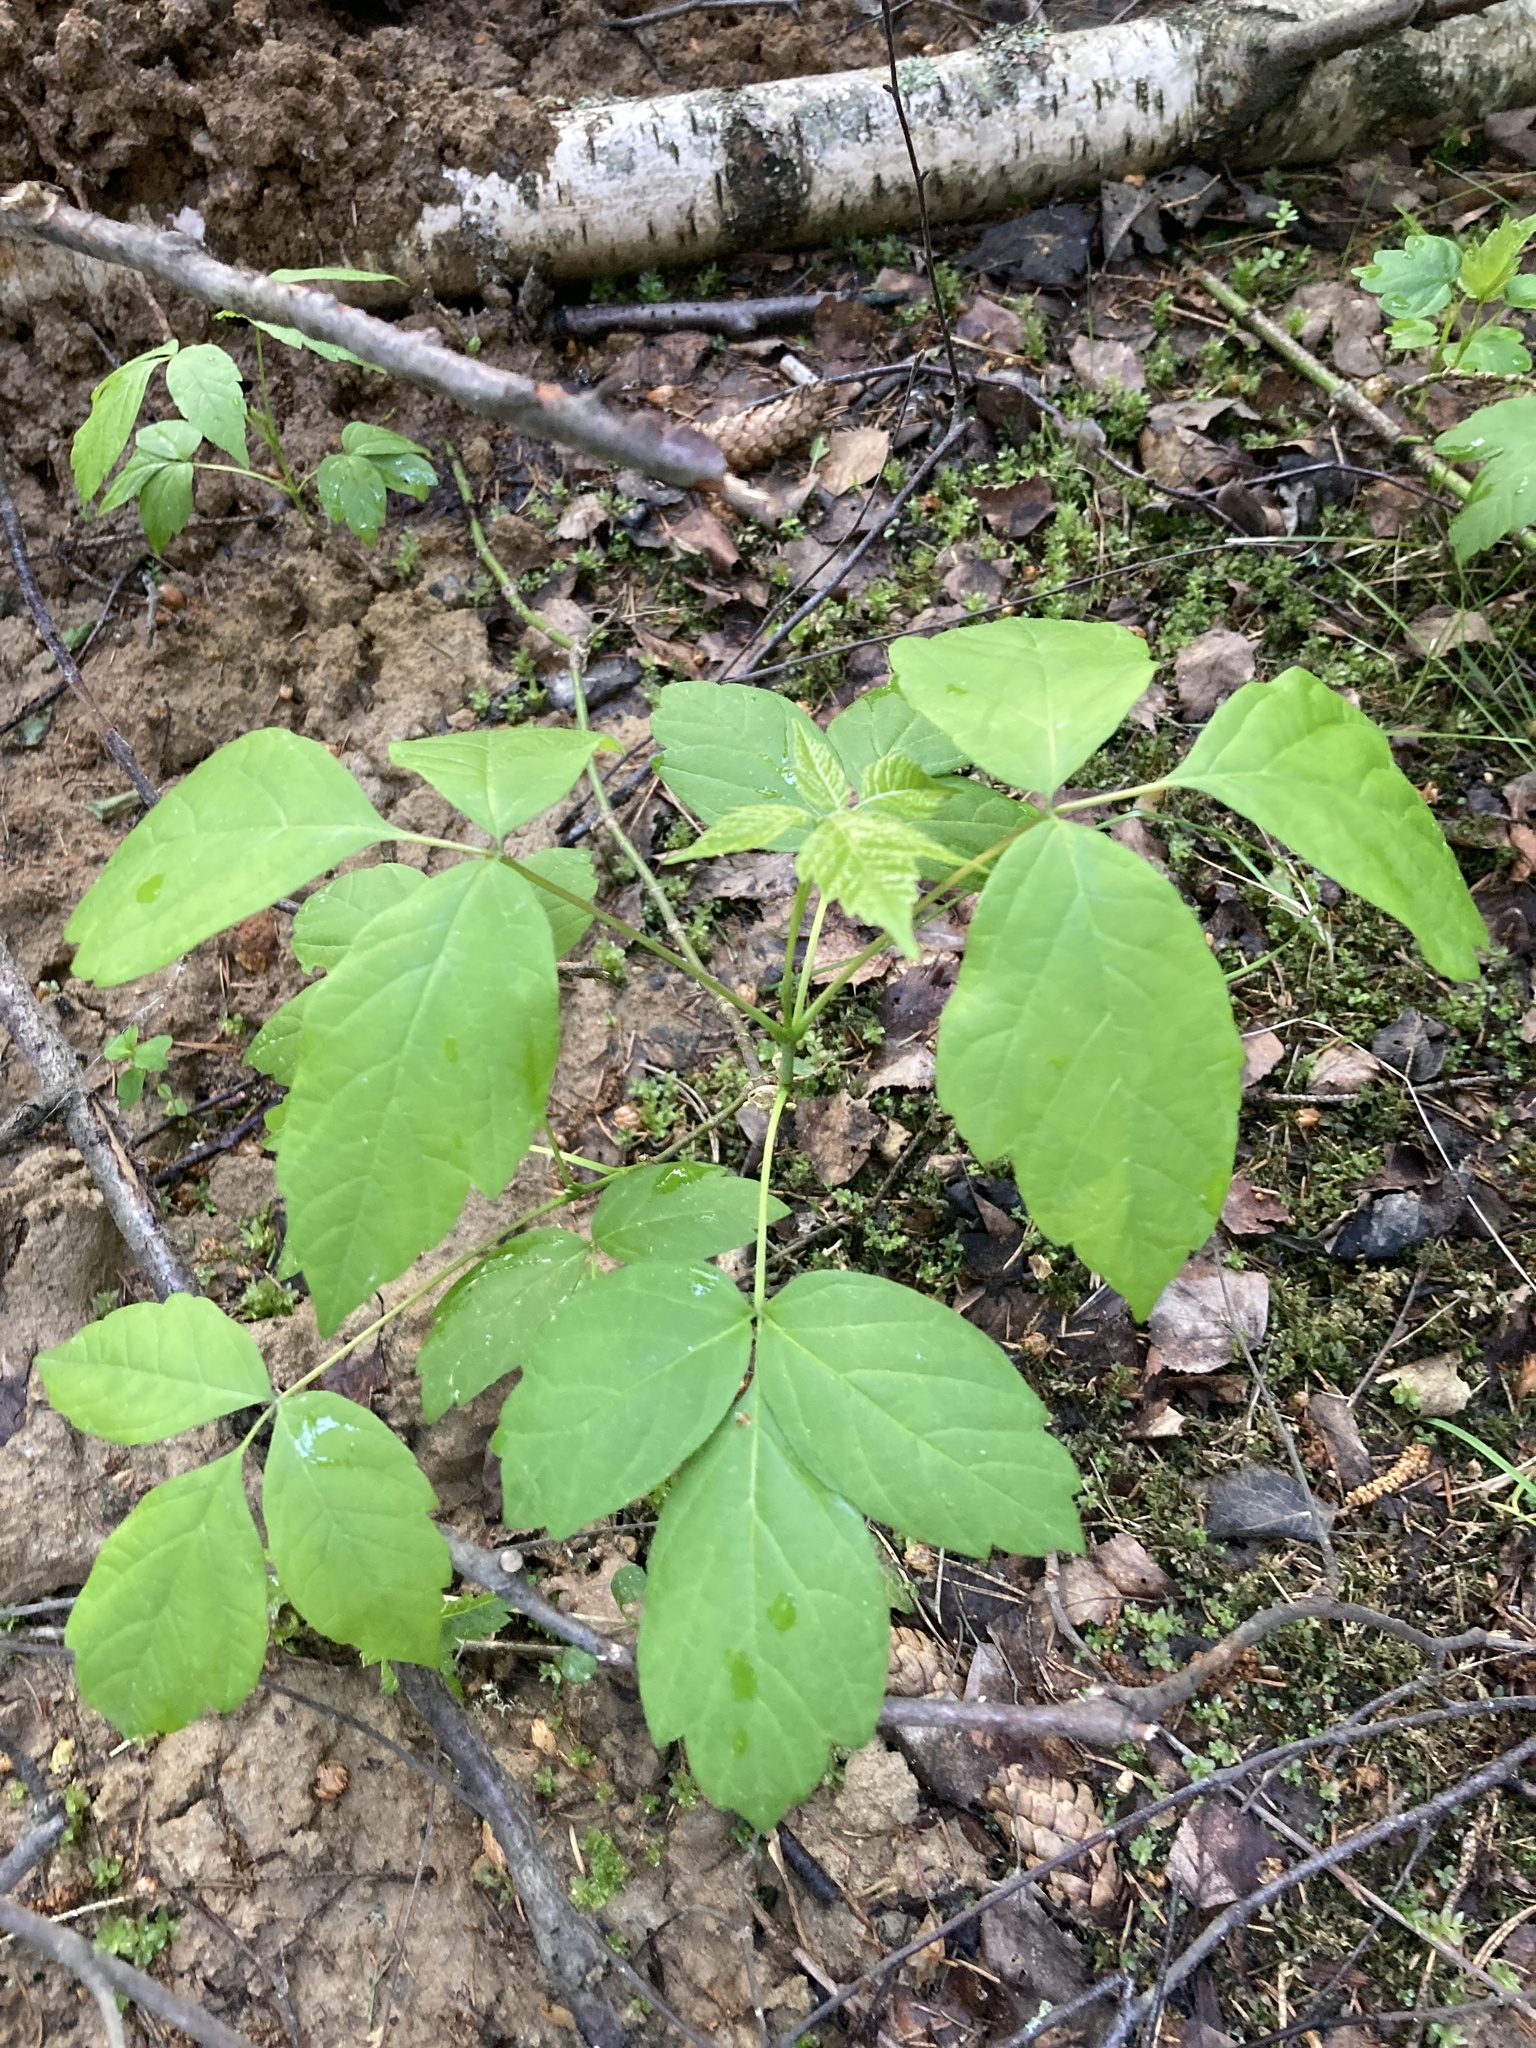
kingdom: Plantae
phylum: Tracheophyta
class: Magnoliopsida
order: Sapindales
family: Sapindaceae
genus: Acer
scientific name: Acer negundo
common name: Ashleaf maple
